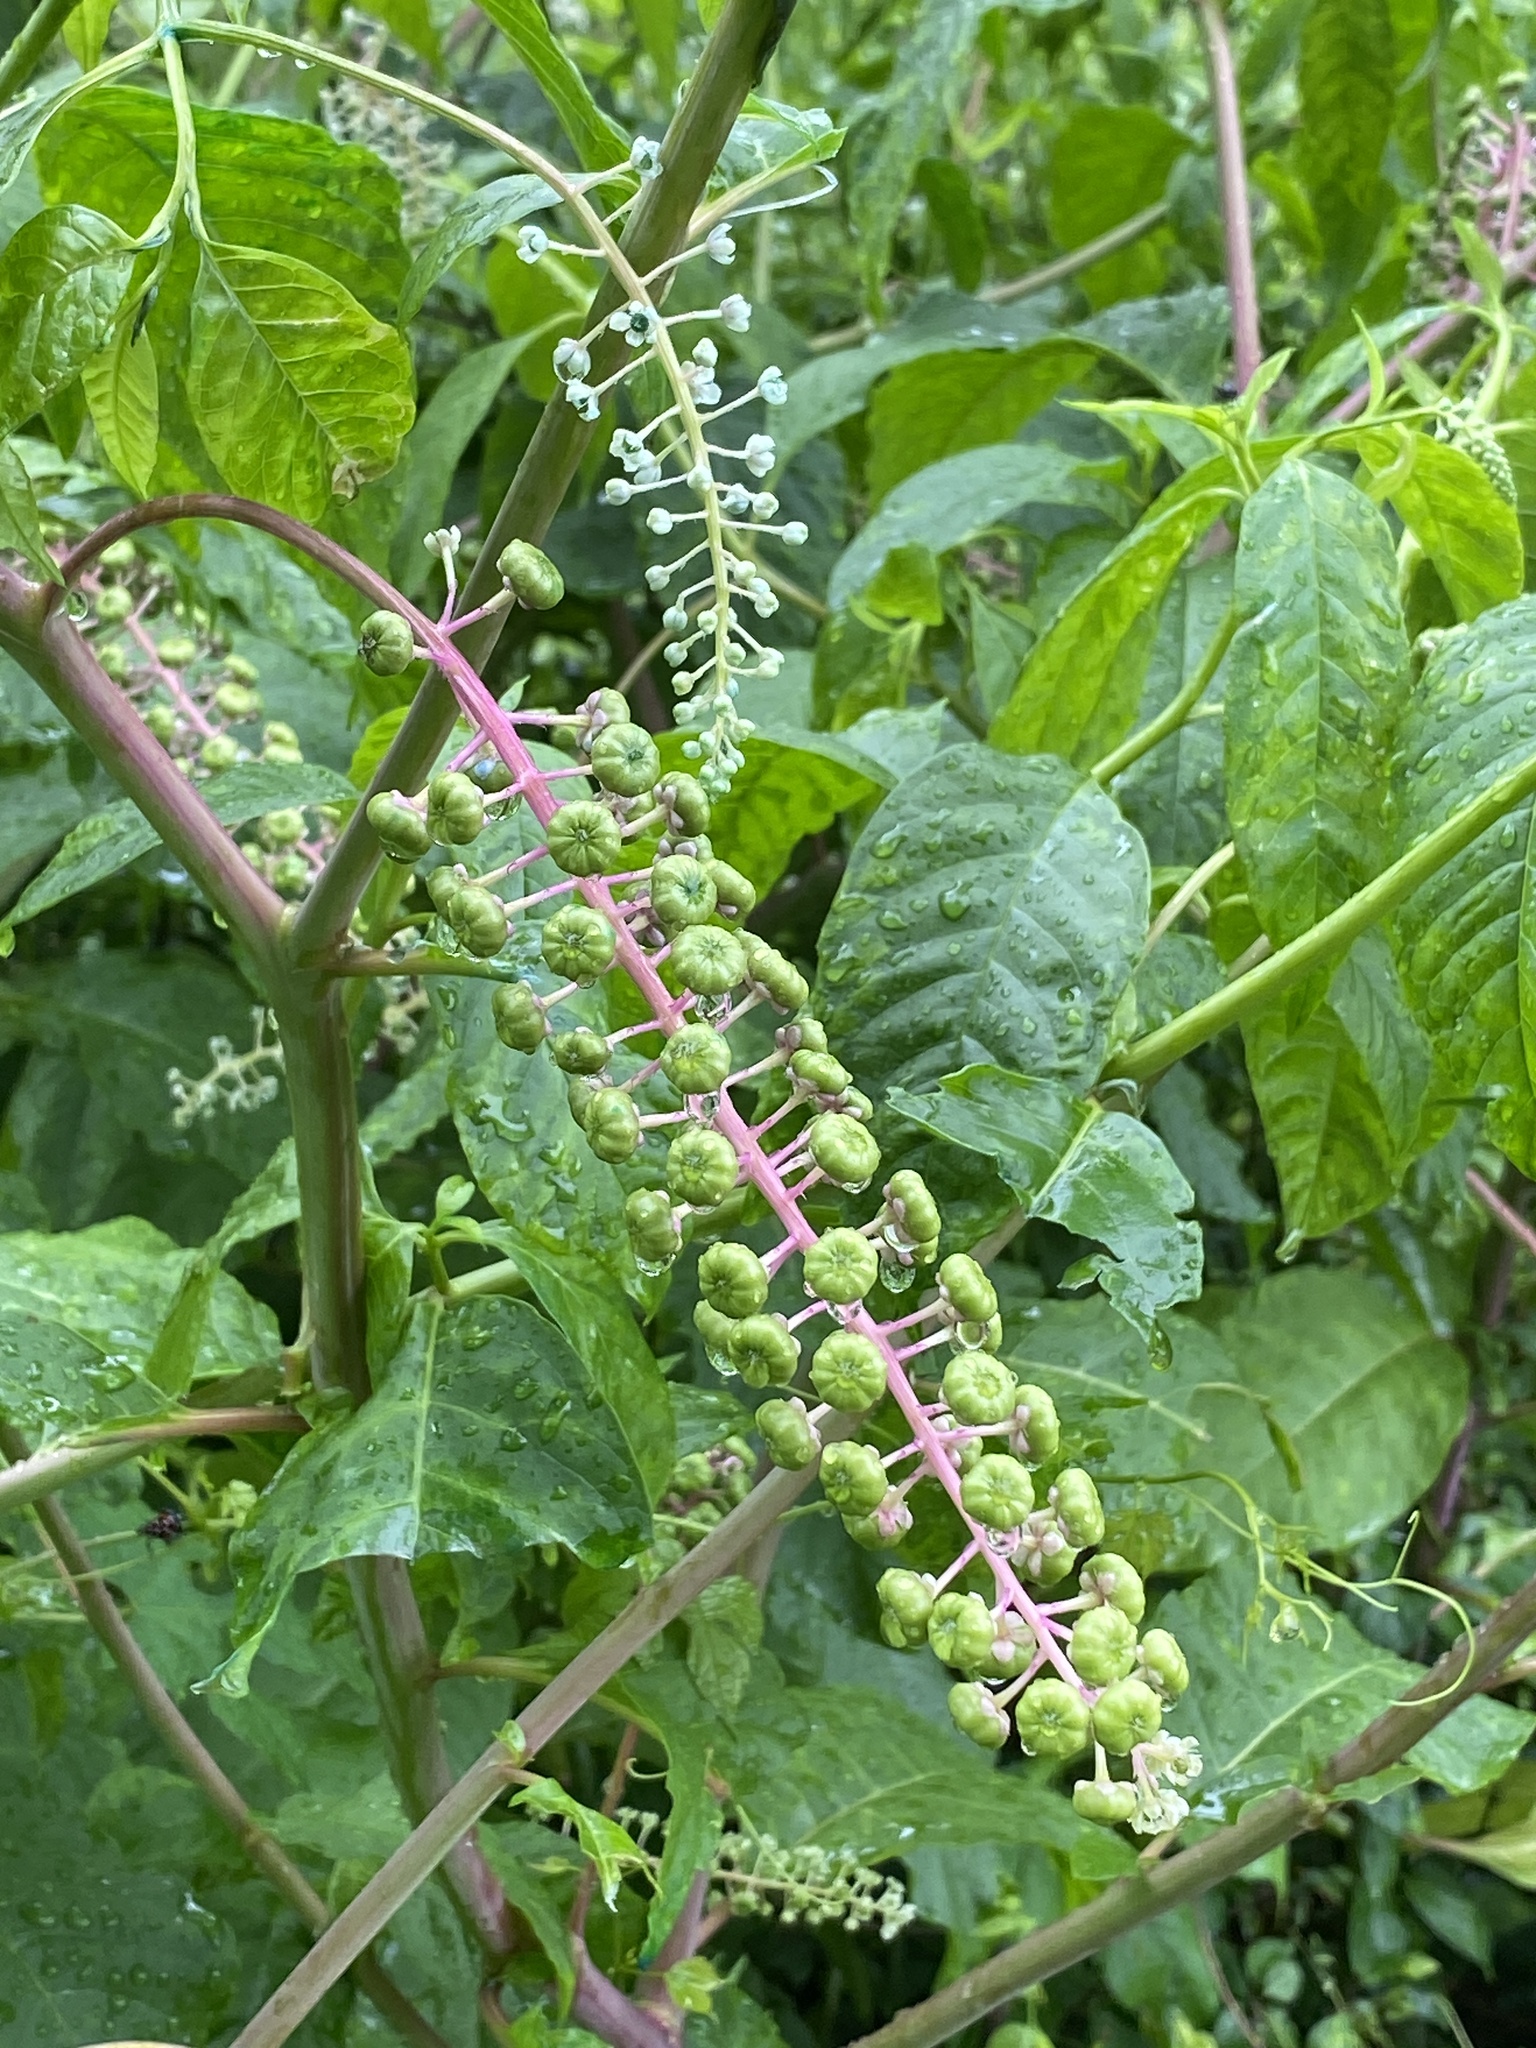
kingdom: Plantae
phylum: Tracheophyta
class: Magnoliopsida
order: Caryophyllales
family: Phytolaccaceae
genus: Phytolacca
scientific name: Phytolacca americana
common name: American pokeweed
